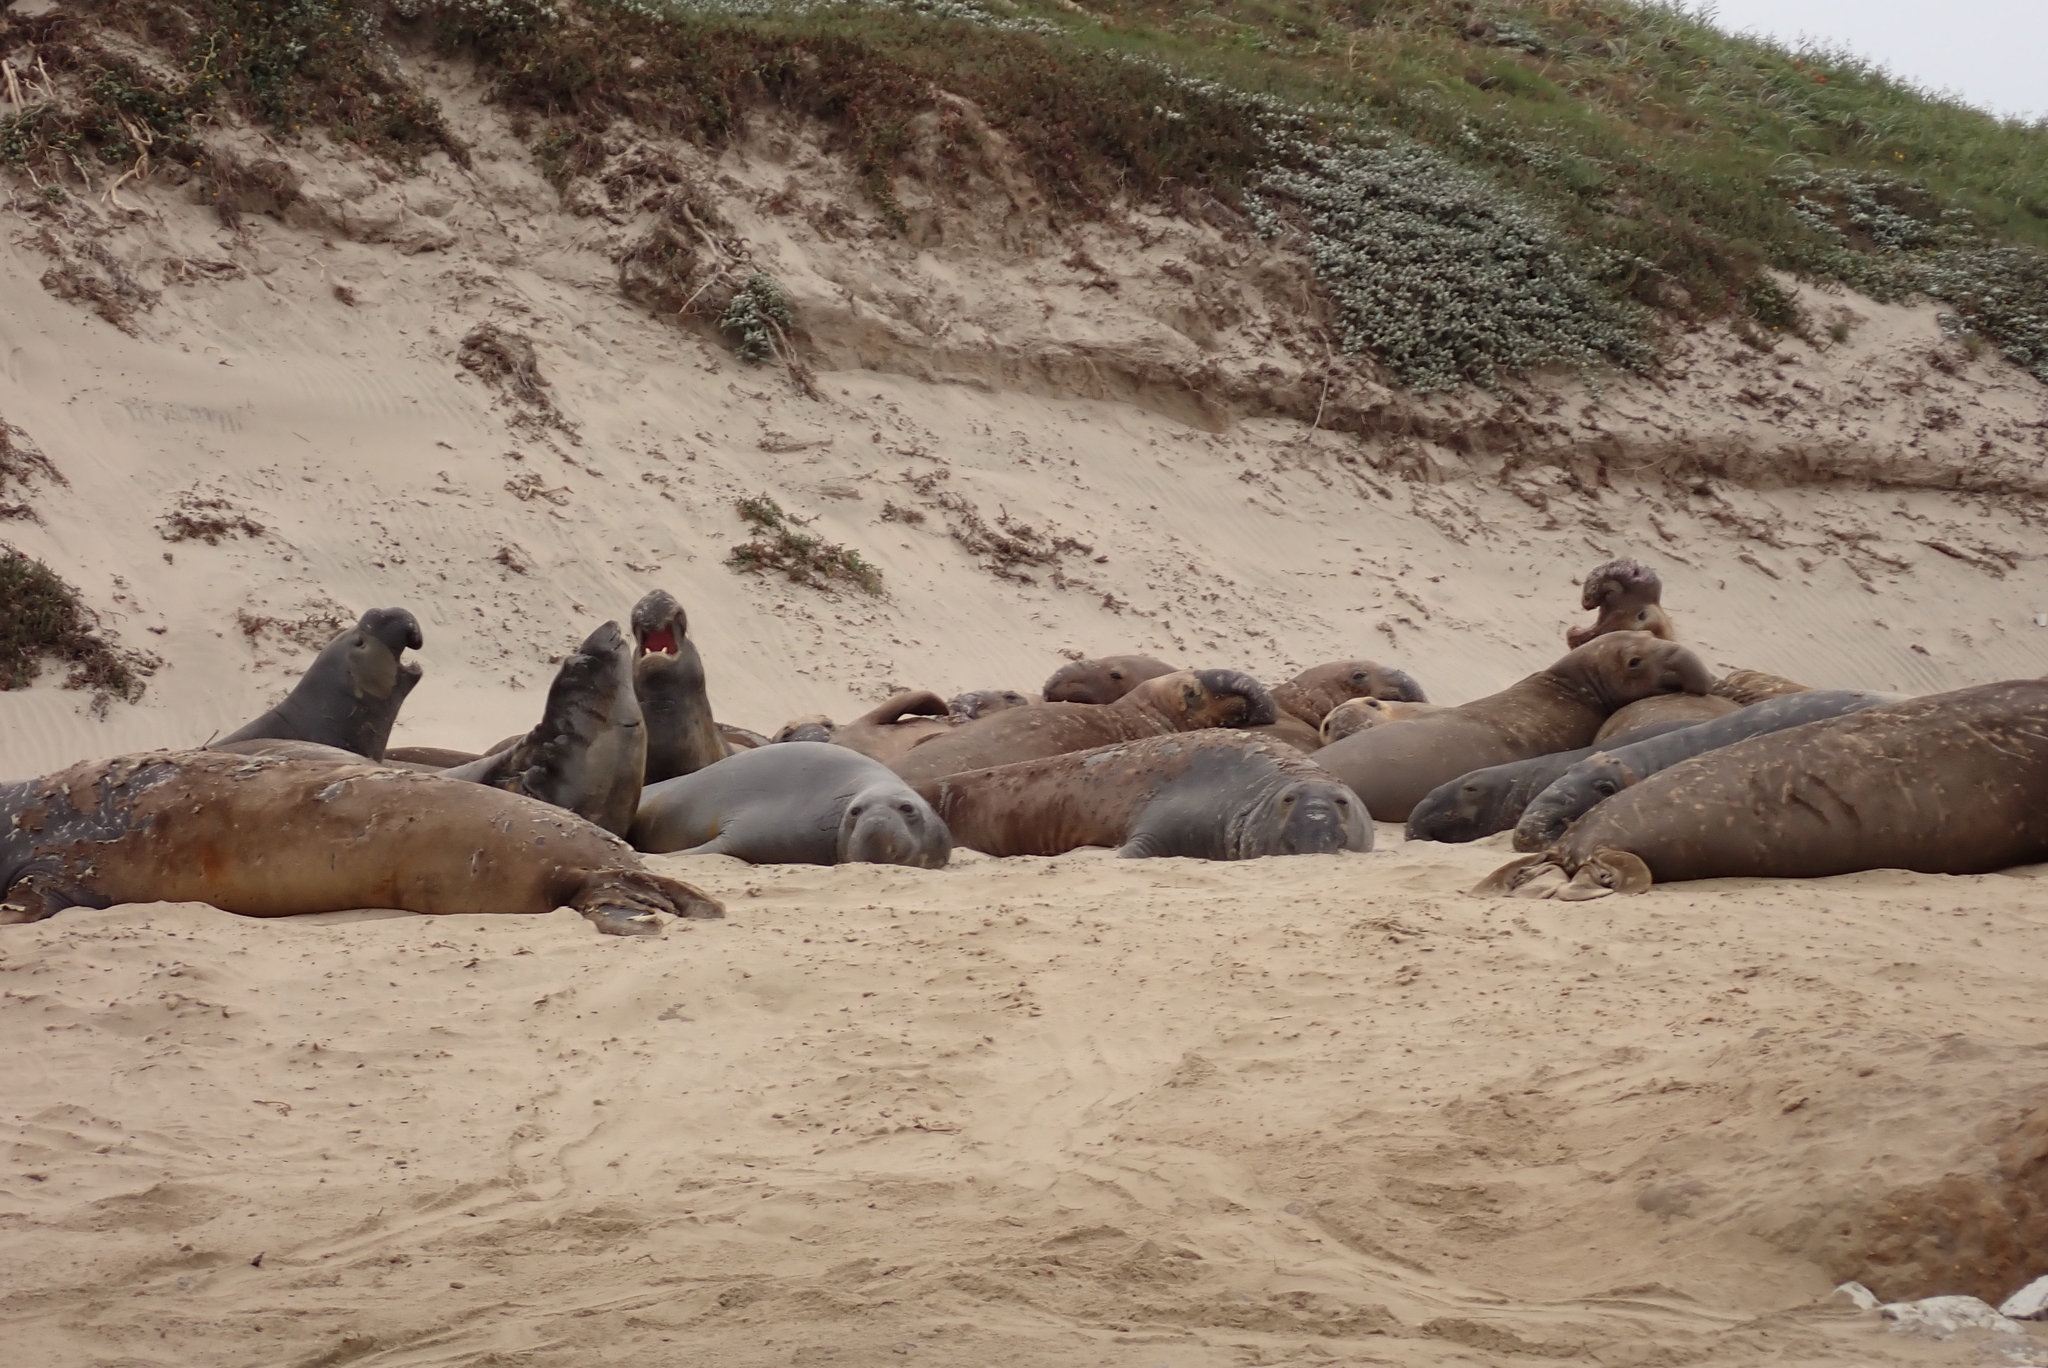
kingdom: Animalia
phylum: Chordata
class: Mammalia
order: Carnivora
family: Phocidae
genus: Mirounga
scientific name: Mirounga angustirostris
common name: Northern elephant seal
